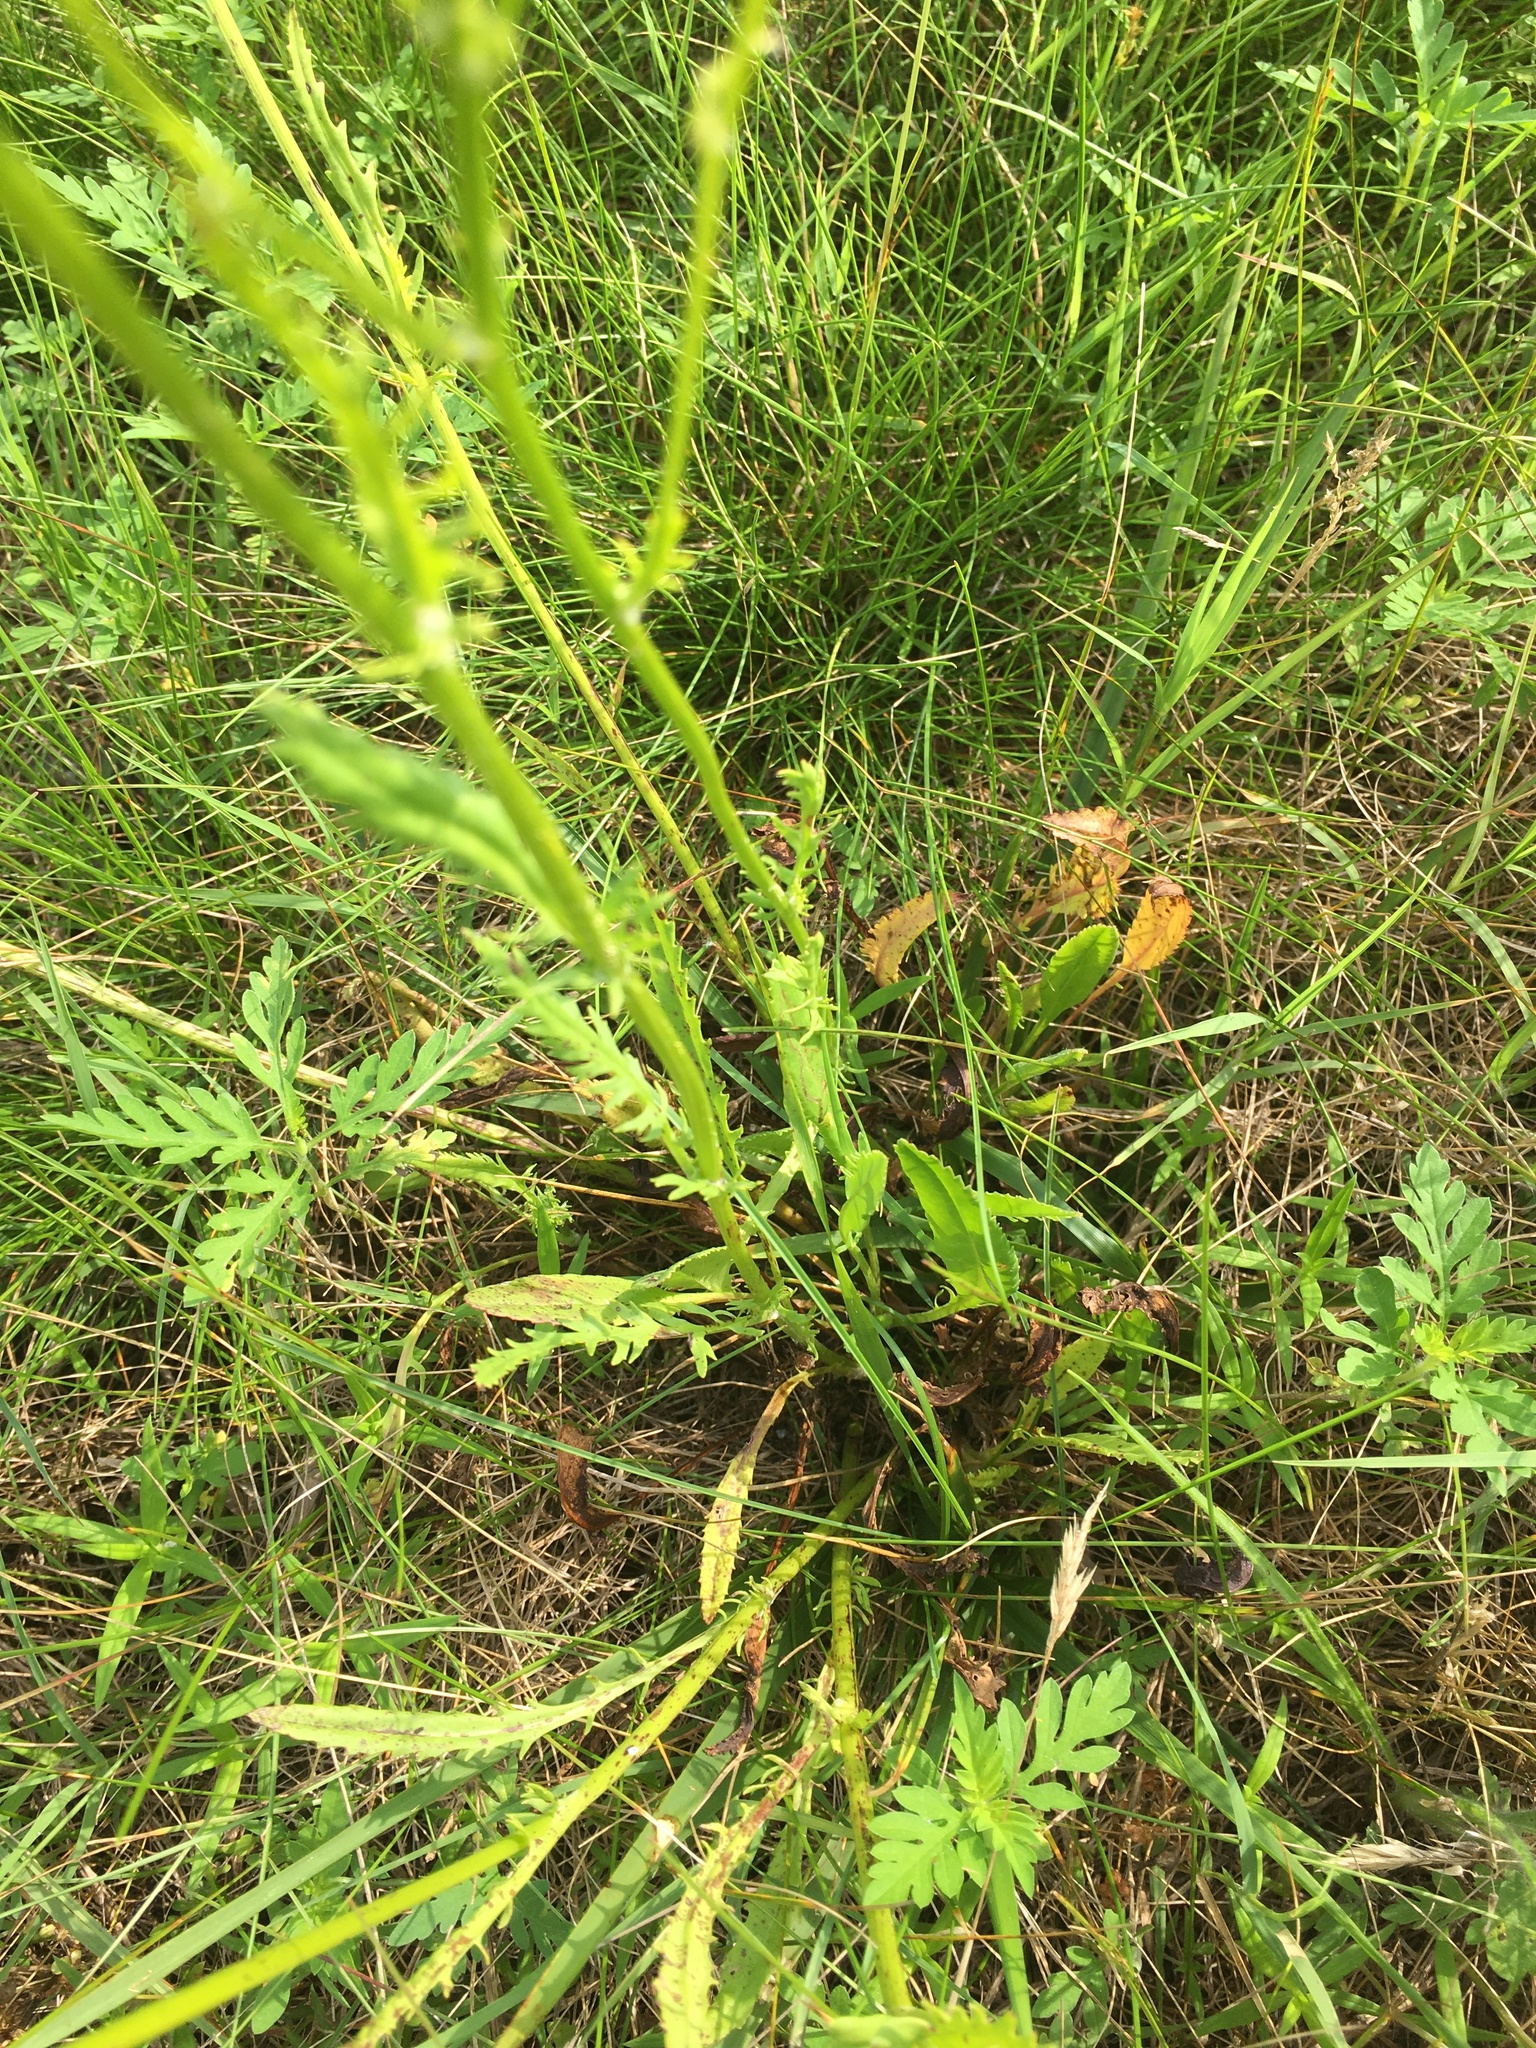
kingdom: Plantae
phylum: Tracheophyta
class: Magnoliopsida
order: Asterales
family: Asteraceae
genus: Packera
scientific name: Packera anonyma
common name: Small ragwort
